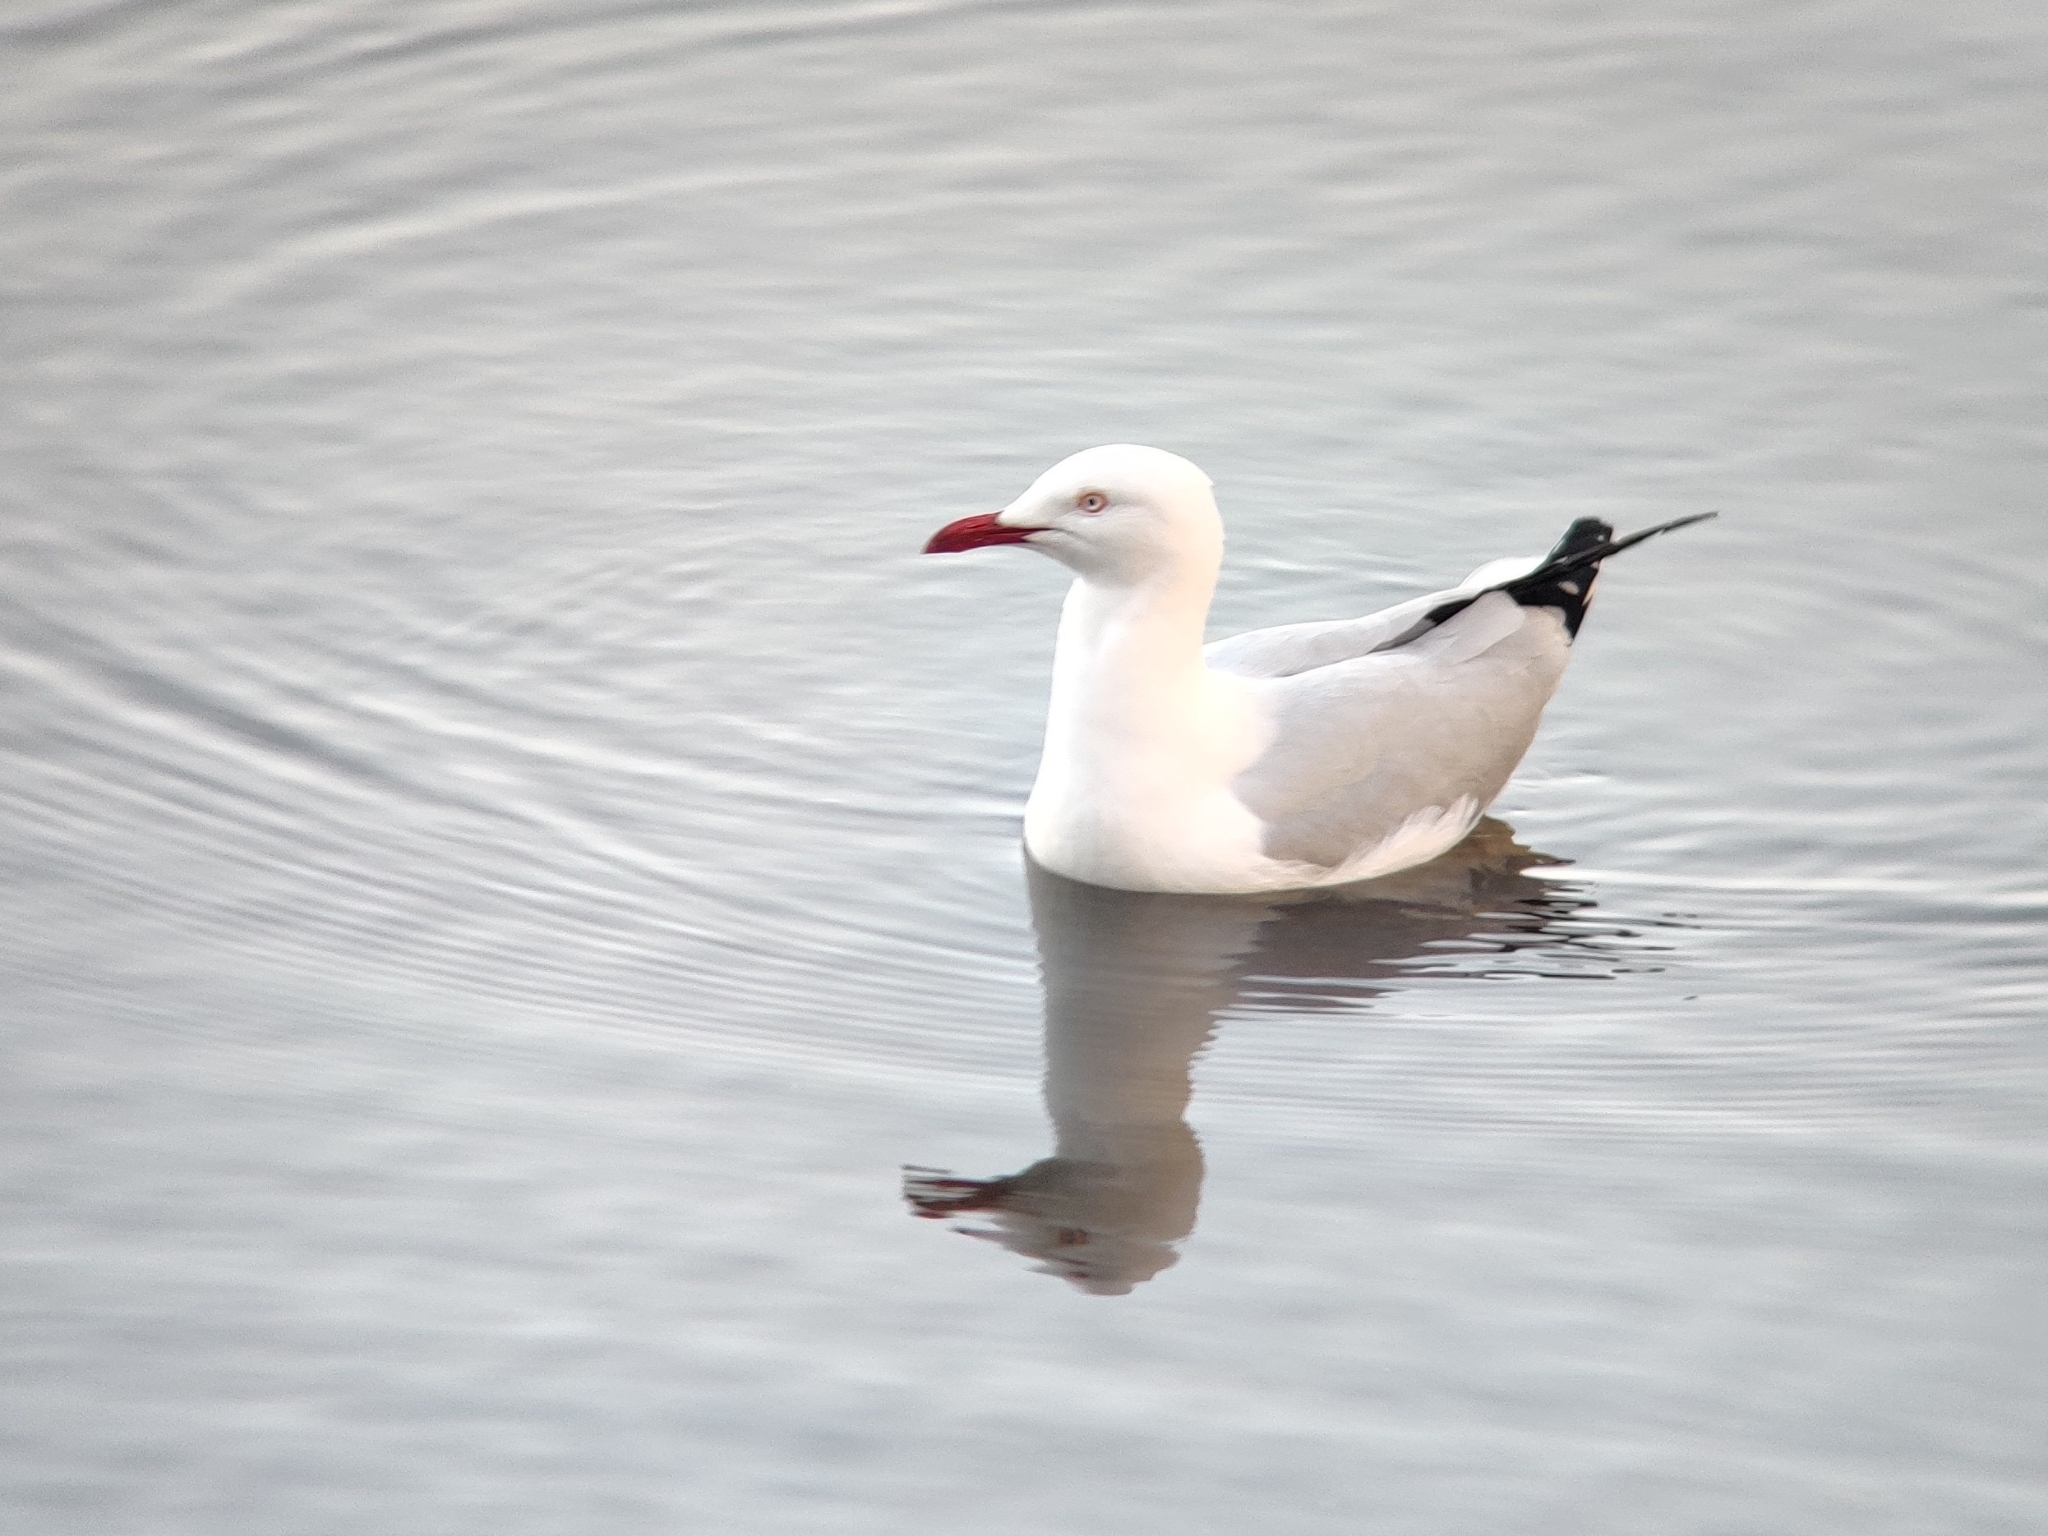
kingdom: Animalia
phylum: Chordata
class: Aves
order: Charadriiformes
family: Laridae
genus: Chroicocephalus
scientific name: Chroicocephalus novaehollandiae
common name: Silver gull
